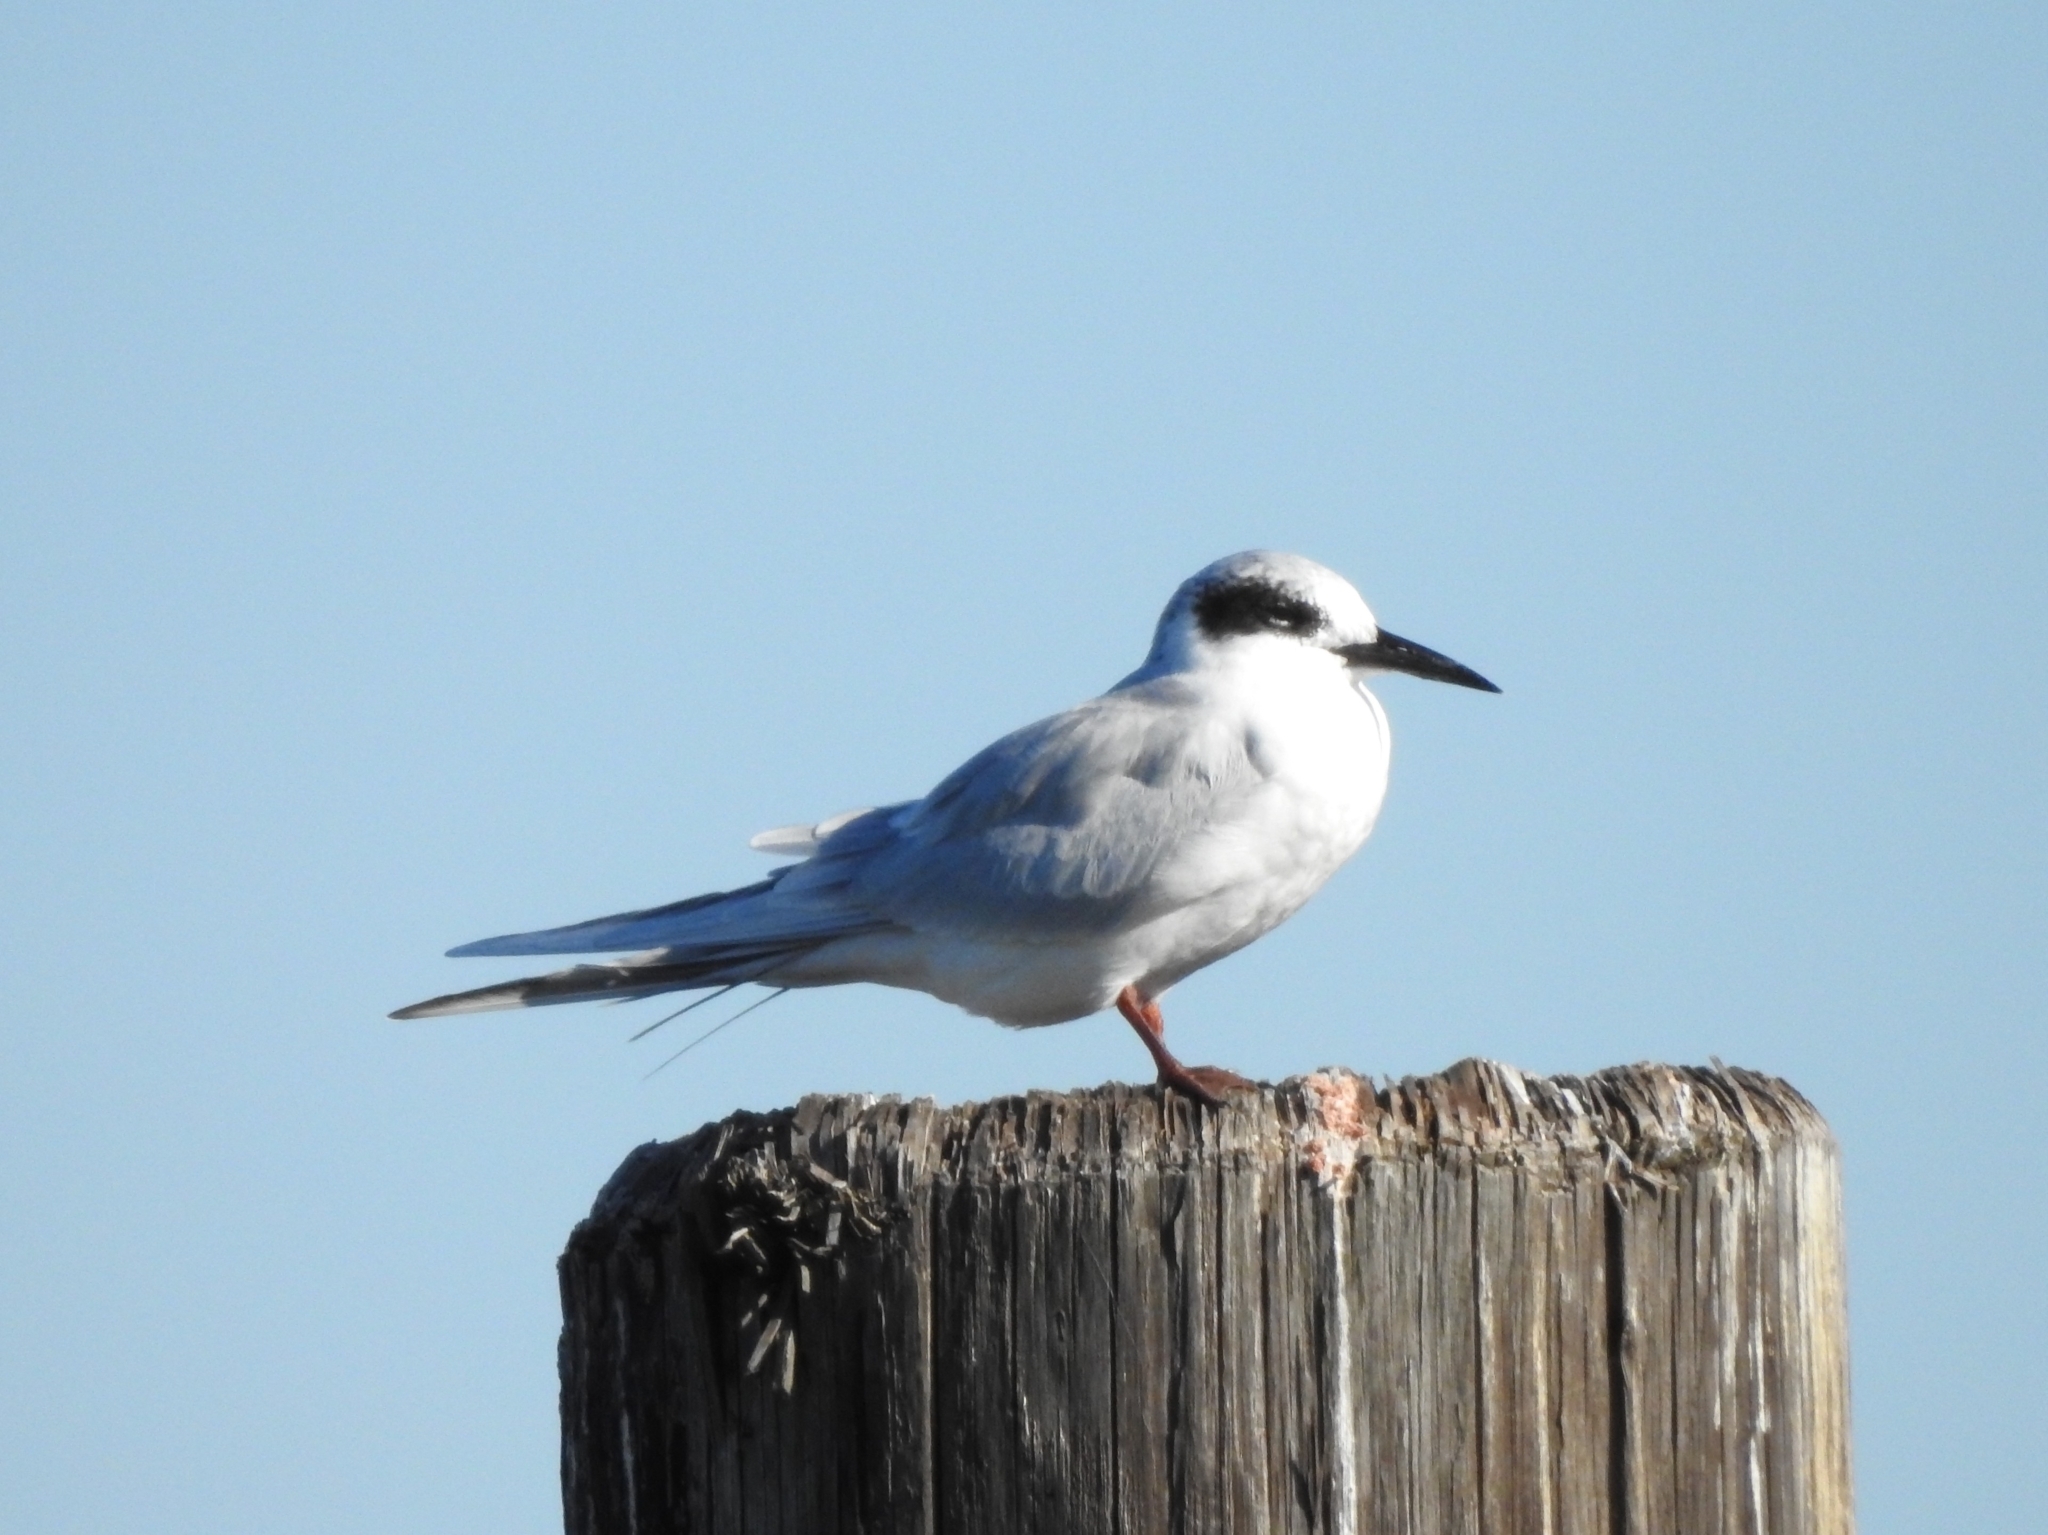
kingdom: Animalia
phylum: Chordata
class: Aves
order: Charadriiformes
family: Laridae
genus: Sterna
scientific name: Sterna forsteri
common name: Forster's tern
